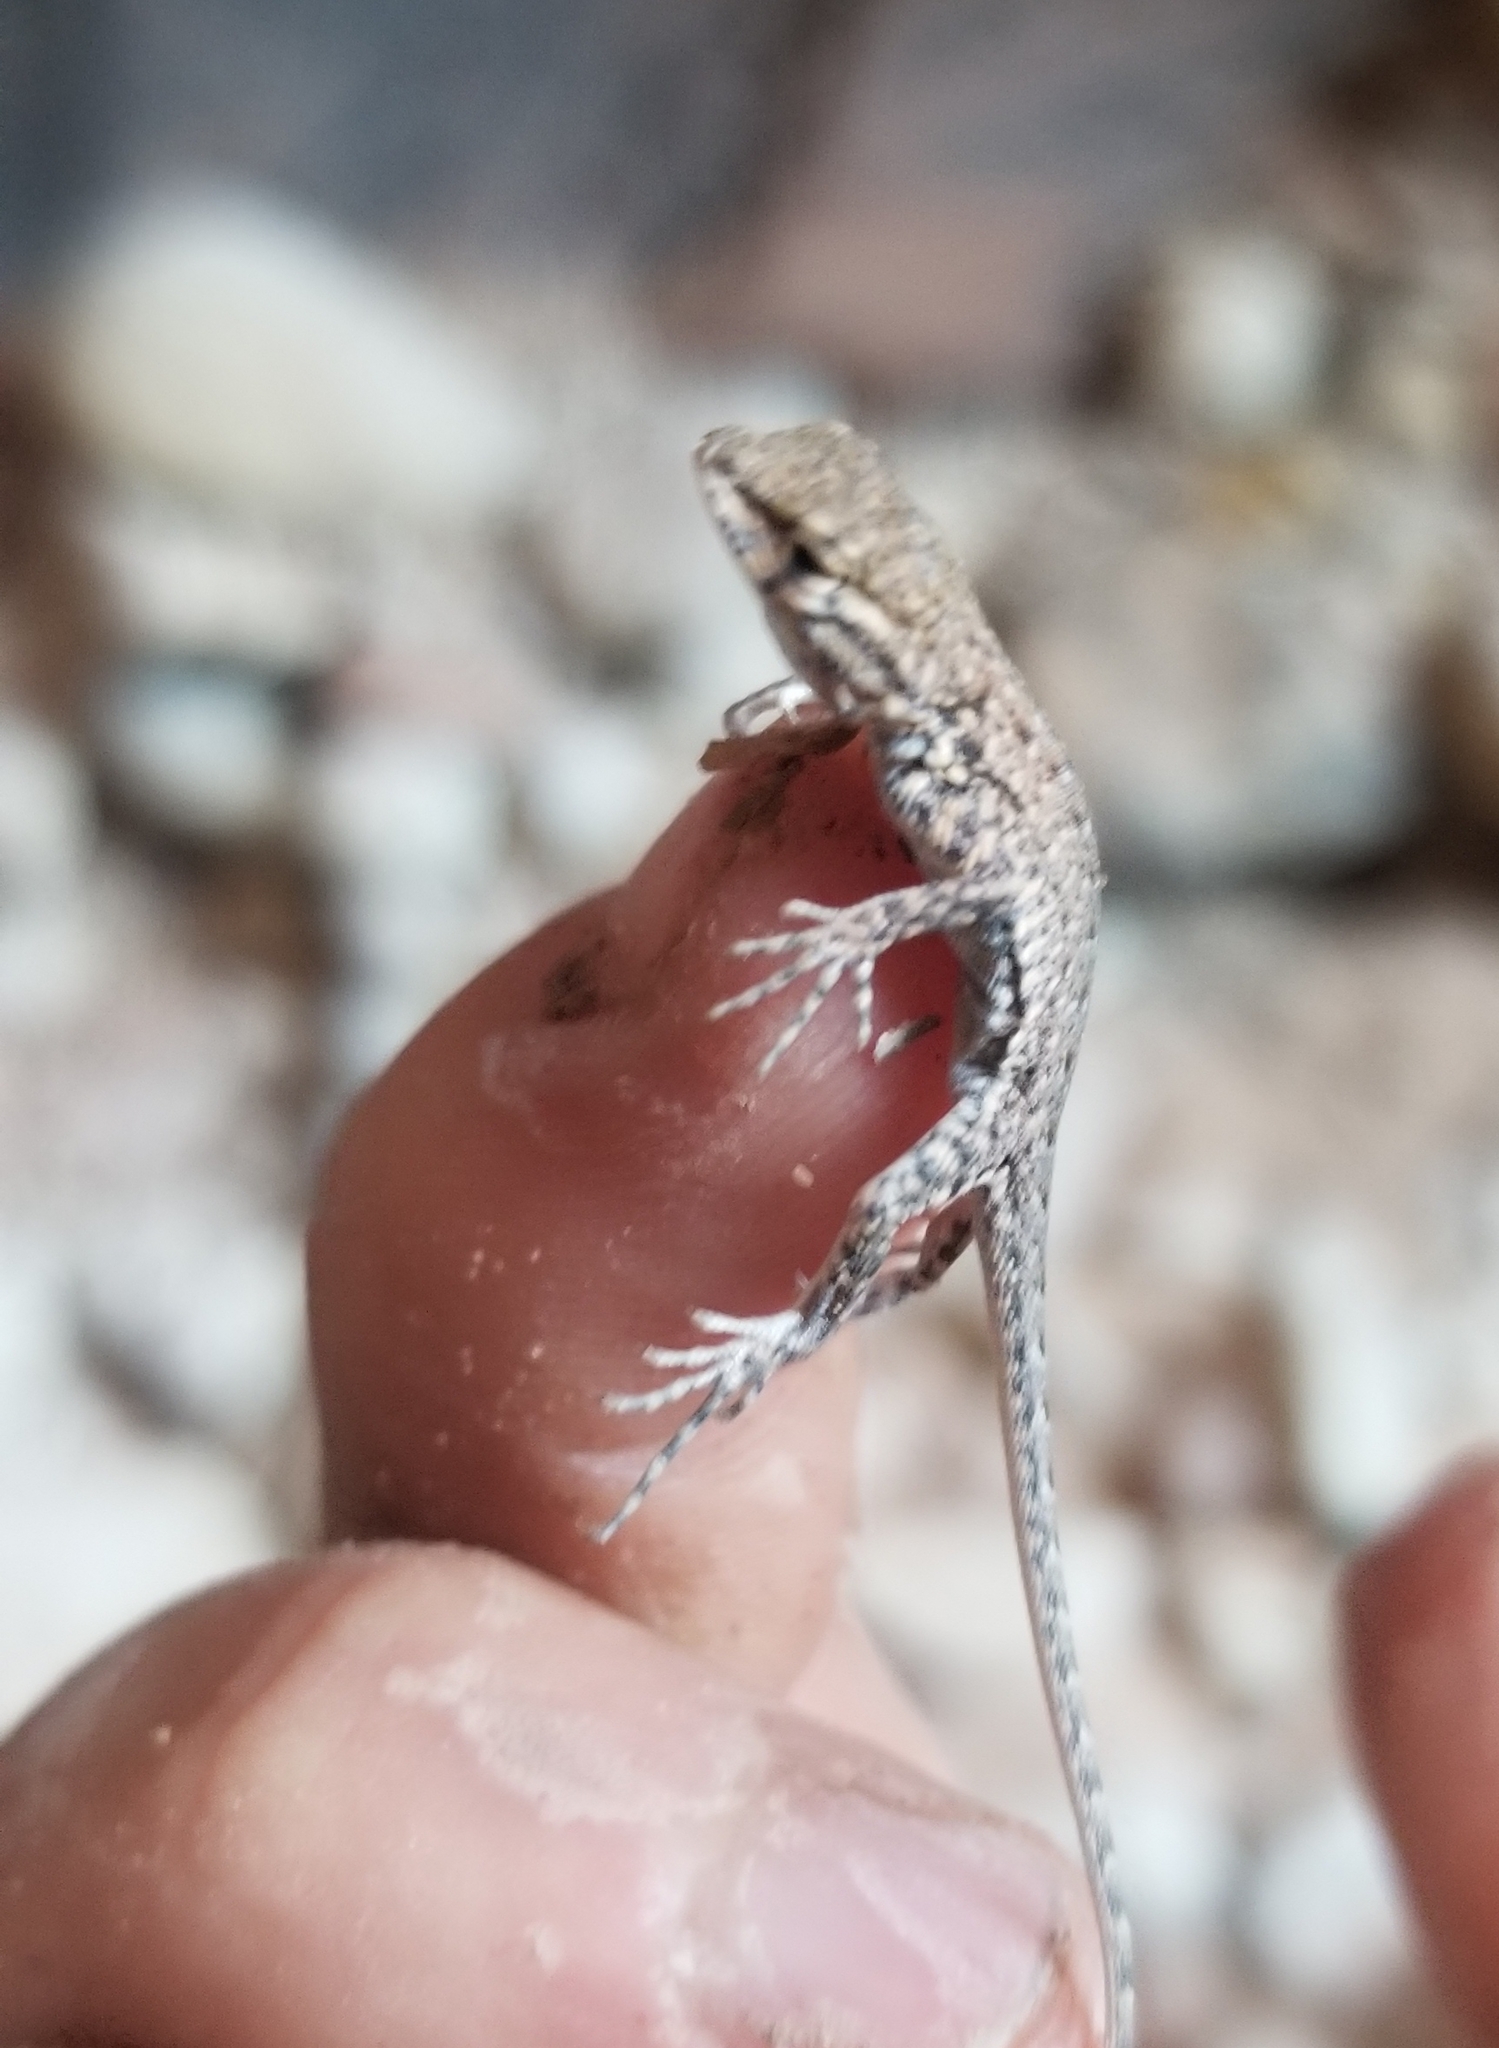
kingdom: Animalia
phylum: Chordata
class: Squamata
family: Phrynosomatidae
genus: Uta
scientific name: Uta stansburiana
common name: Side-blotched lizard
